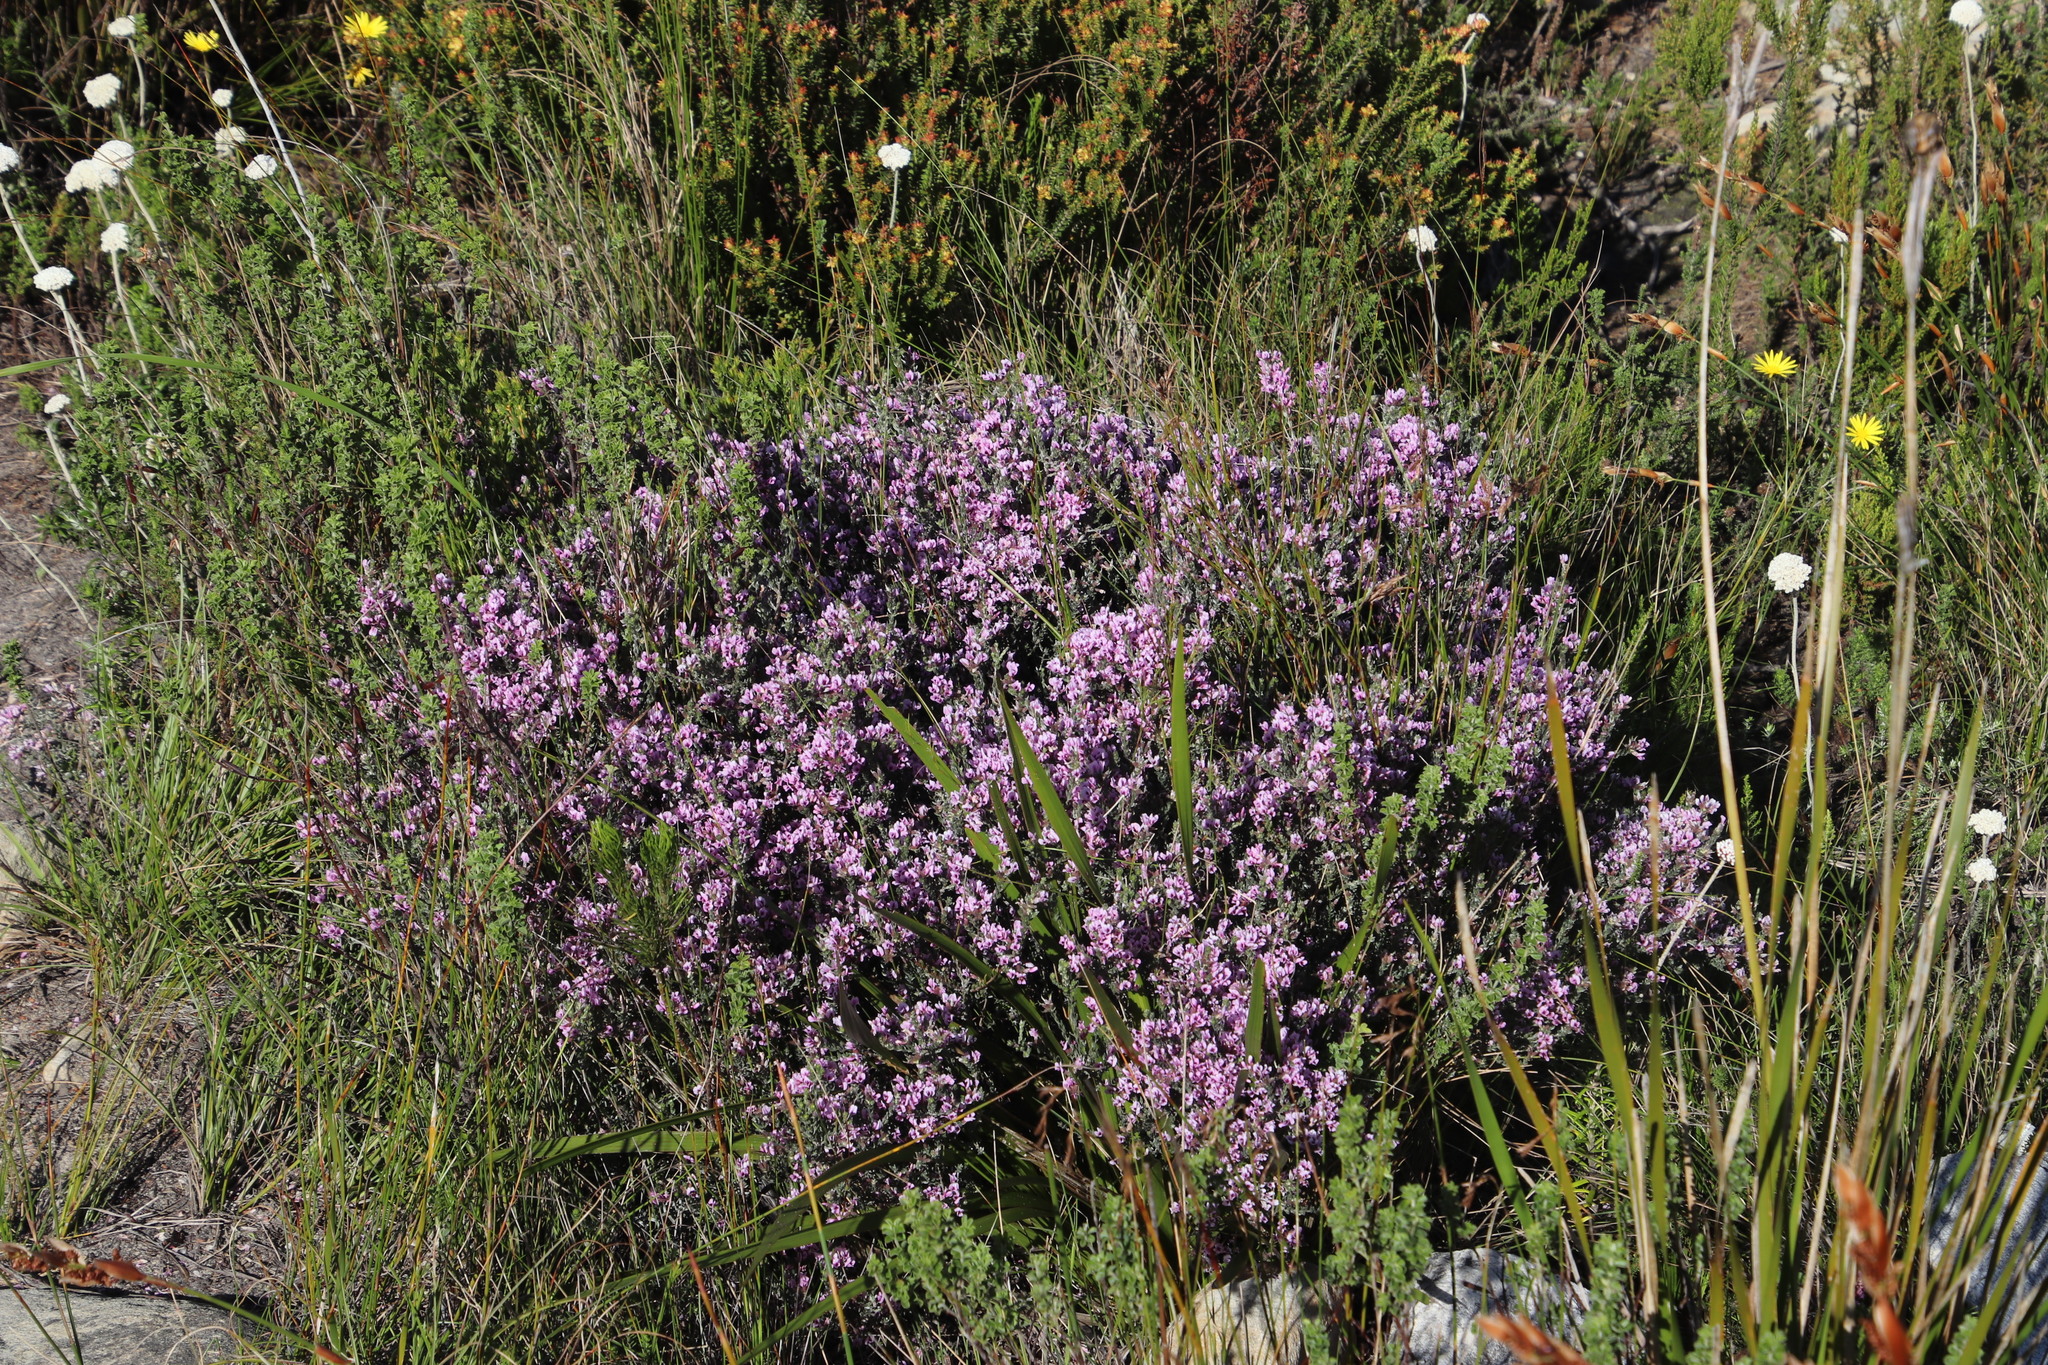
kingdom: Plantae
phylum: Tracheophyta
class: Magnoliopsida
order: Fabales
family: Fabaceae
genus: Amphithalea
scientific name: Amphithalea ericifolia
